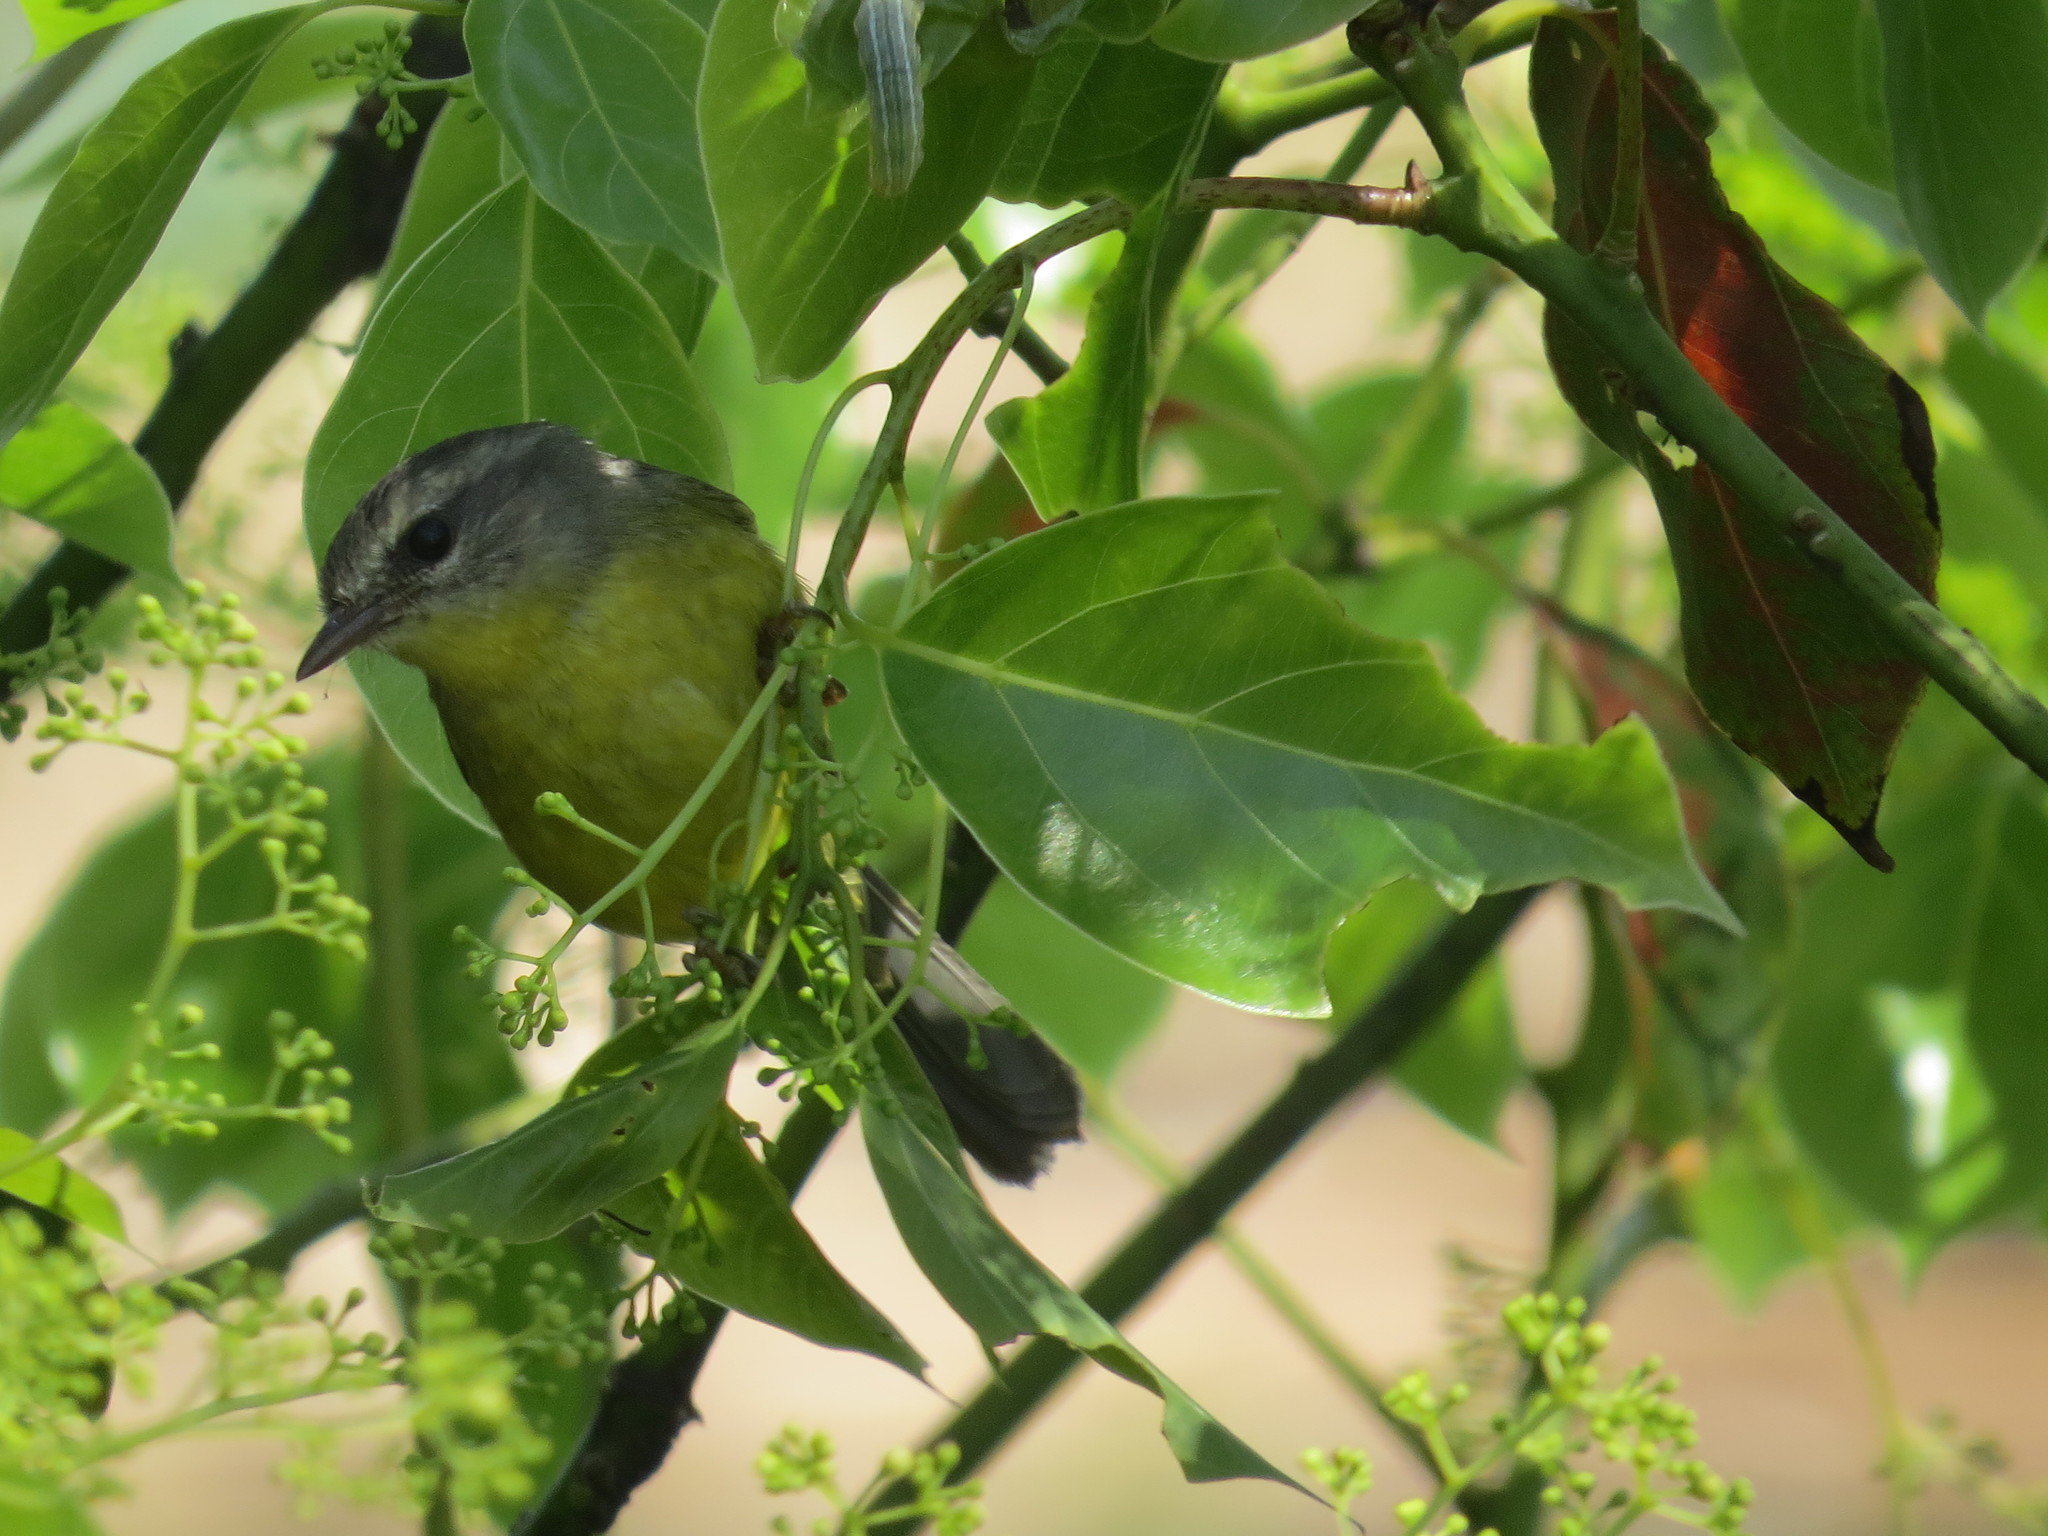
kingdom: Animalia
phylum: Chordata
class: Aves
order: Passeriformes
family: Parulidae
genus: Basileuterus
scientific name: Basileuterus culicivorus
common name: Golden-crowned warbler
